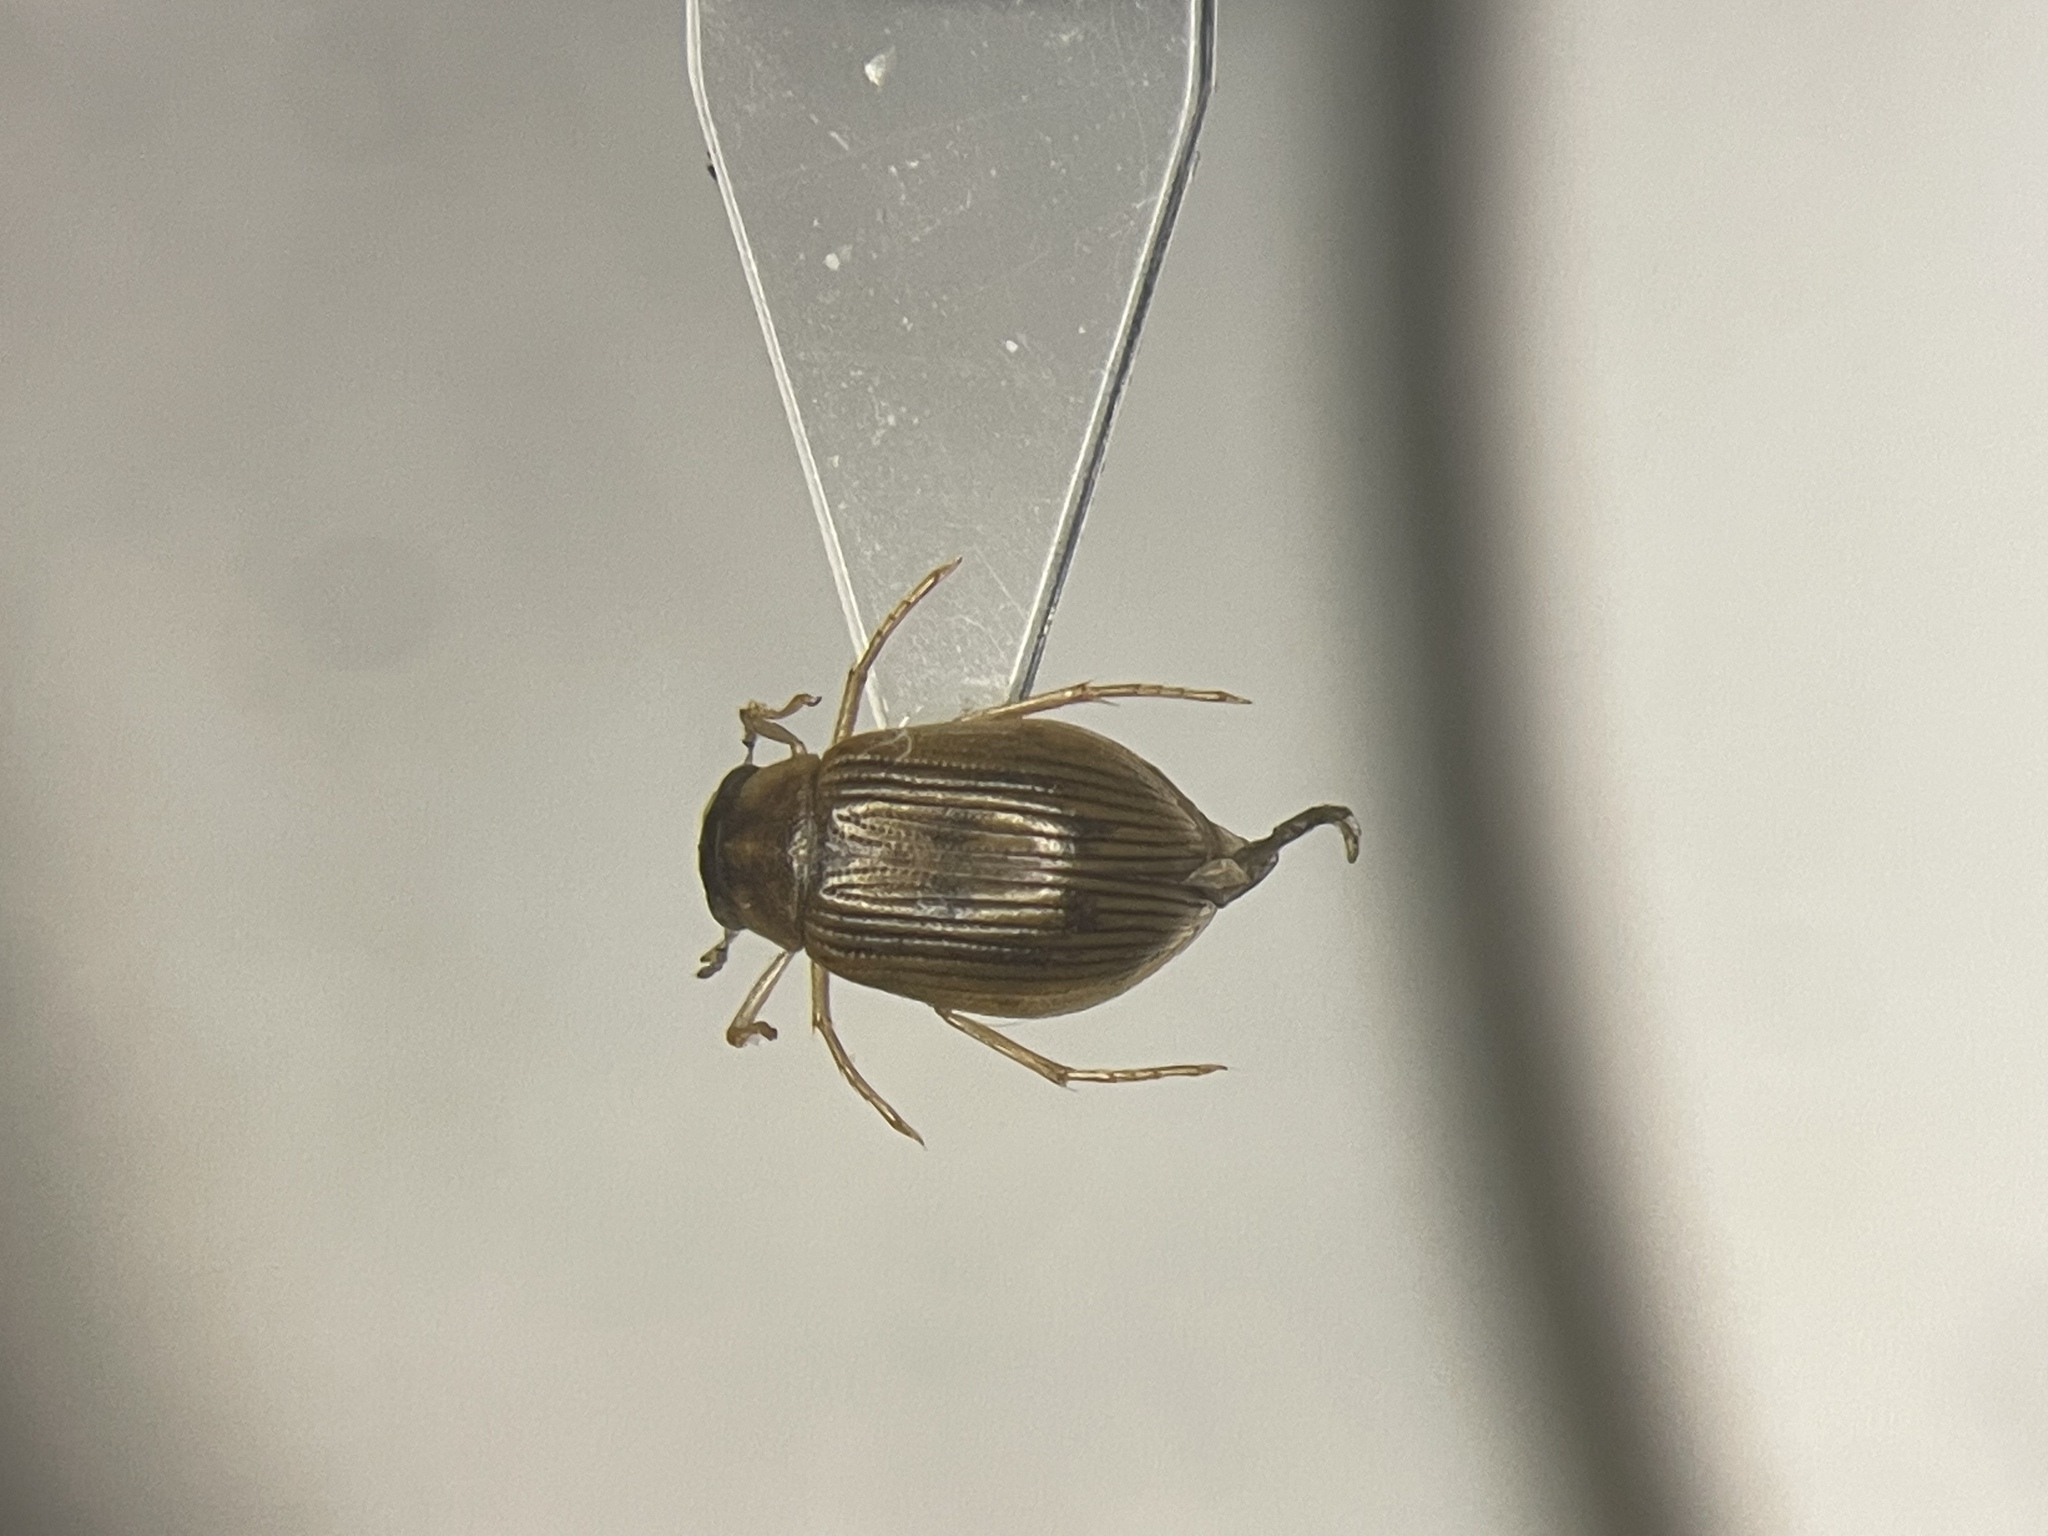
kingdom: Animalia
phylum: Arthropoda
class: Insecta
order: Coleoptera
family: Hydrophilidae
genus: Berosus
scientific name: Berosus peregrinus
